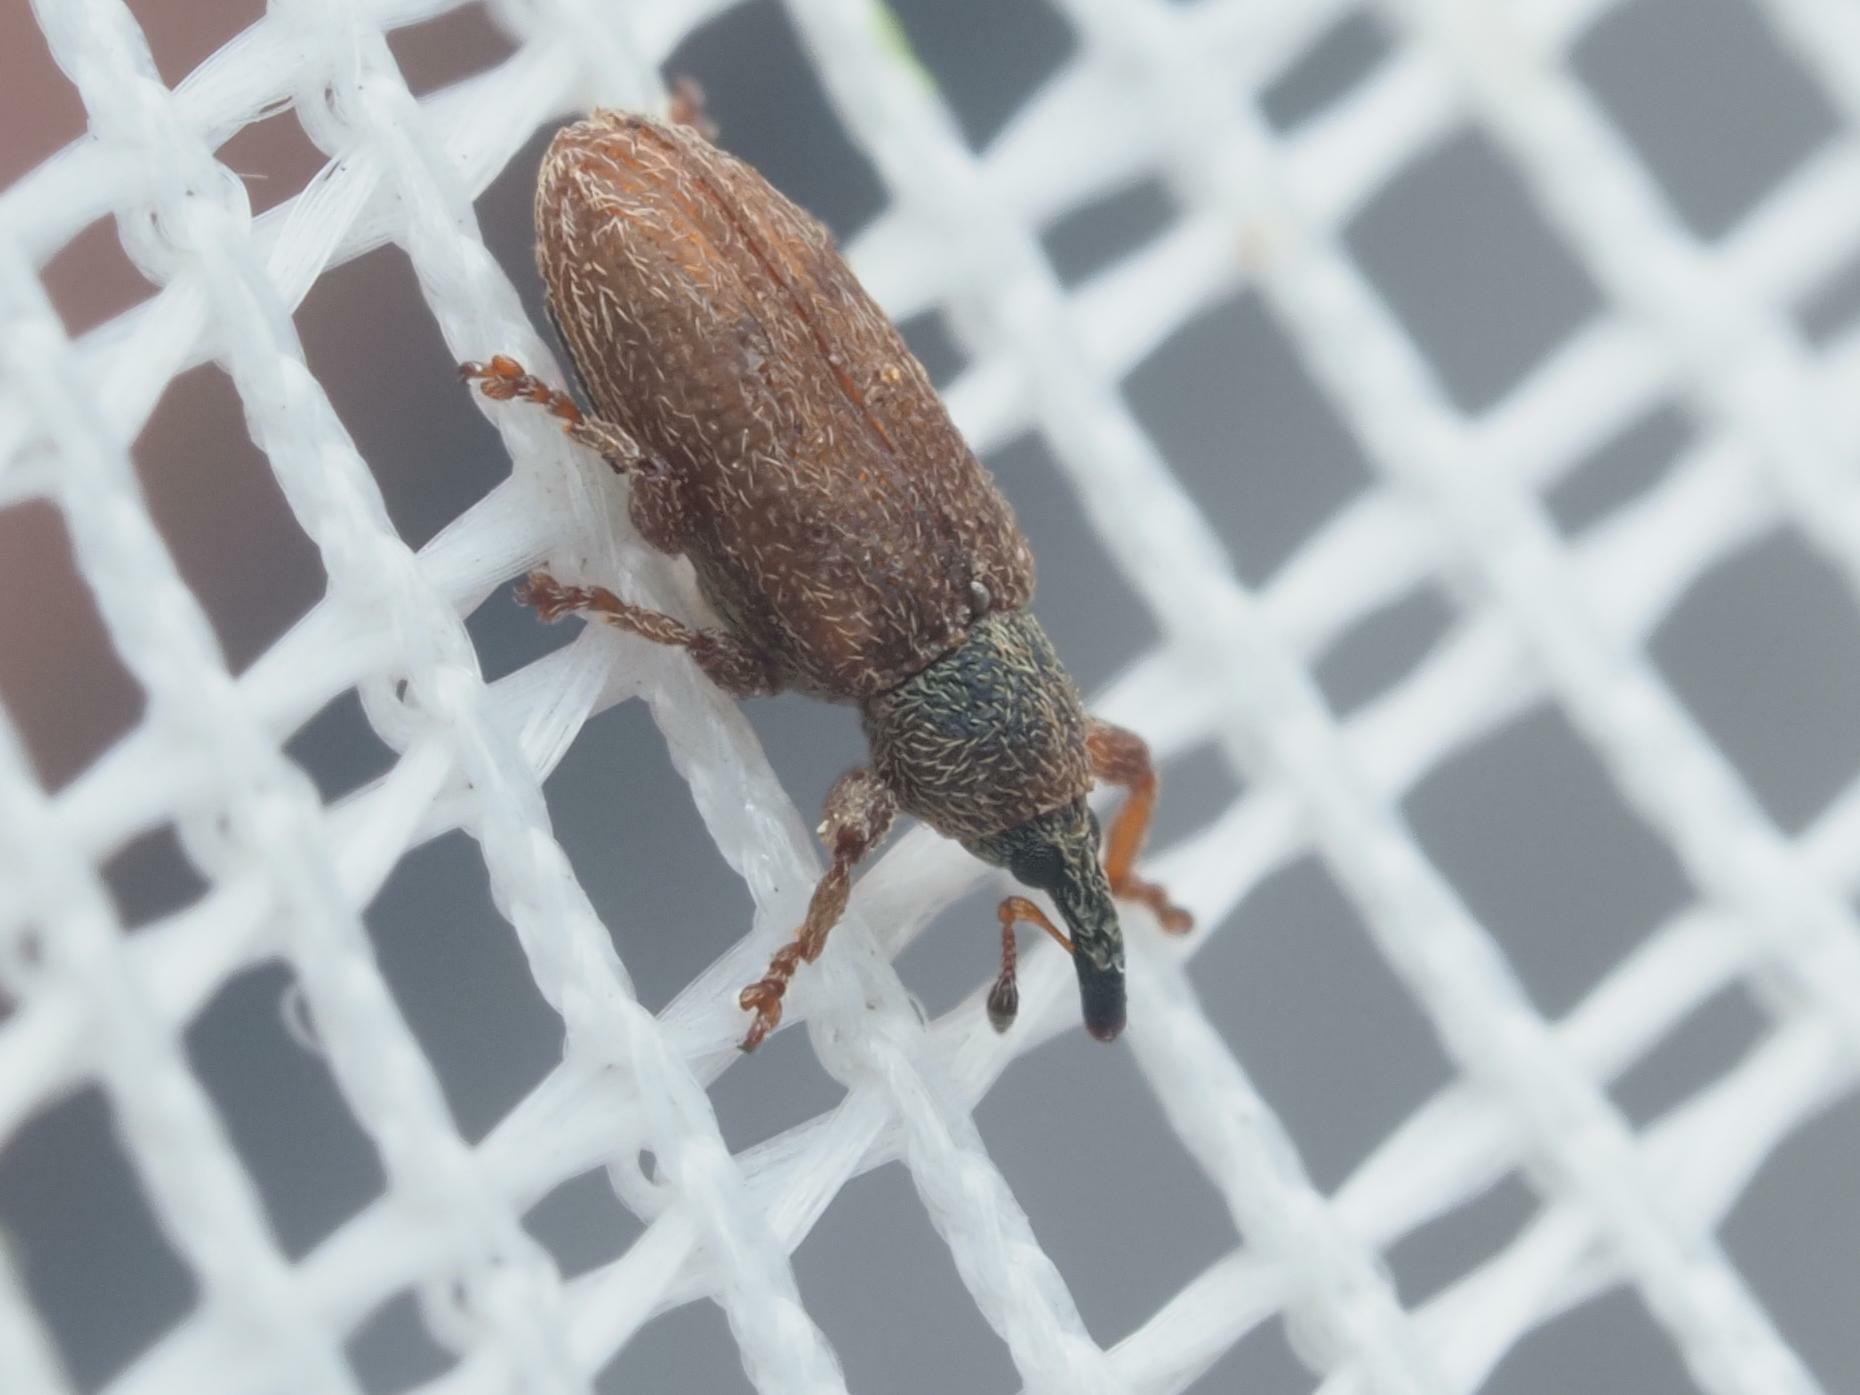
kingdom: Animalia
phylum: Arthropoda
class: Insecta
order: Coleoptera
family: Curculionidae
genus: Bradybatus
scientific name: Bradybatus creutzeri
